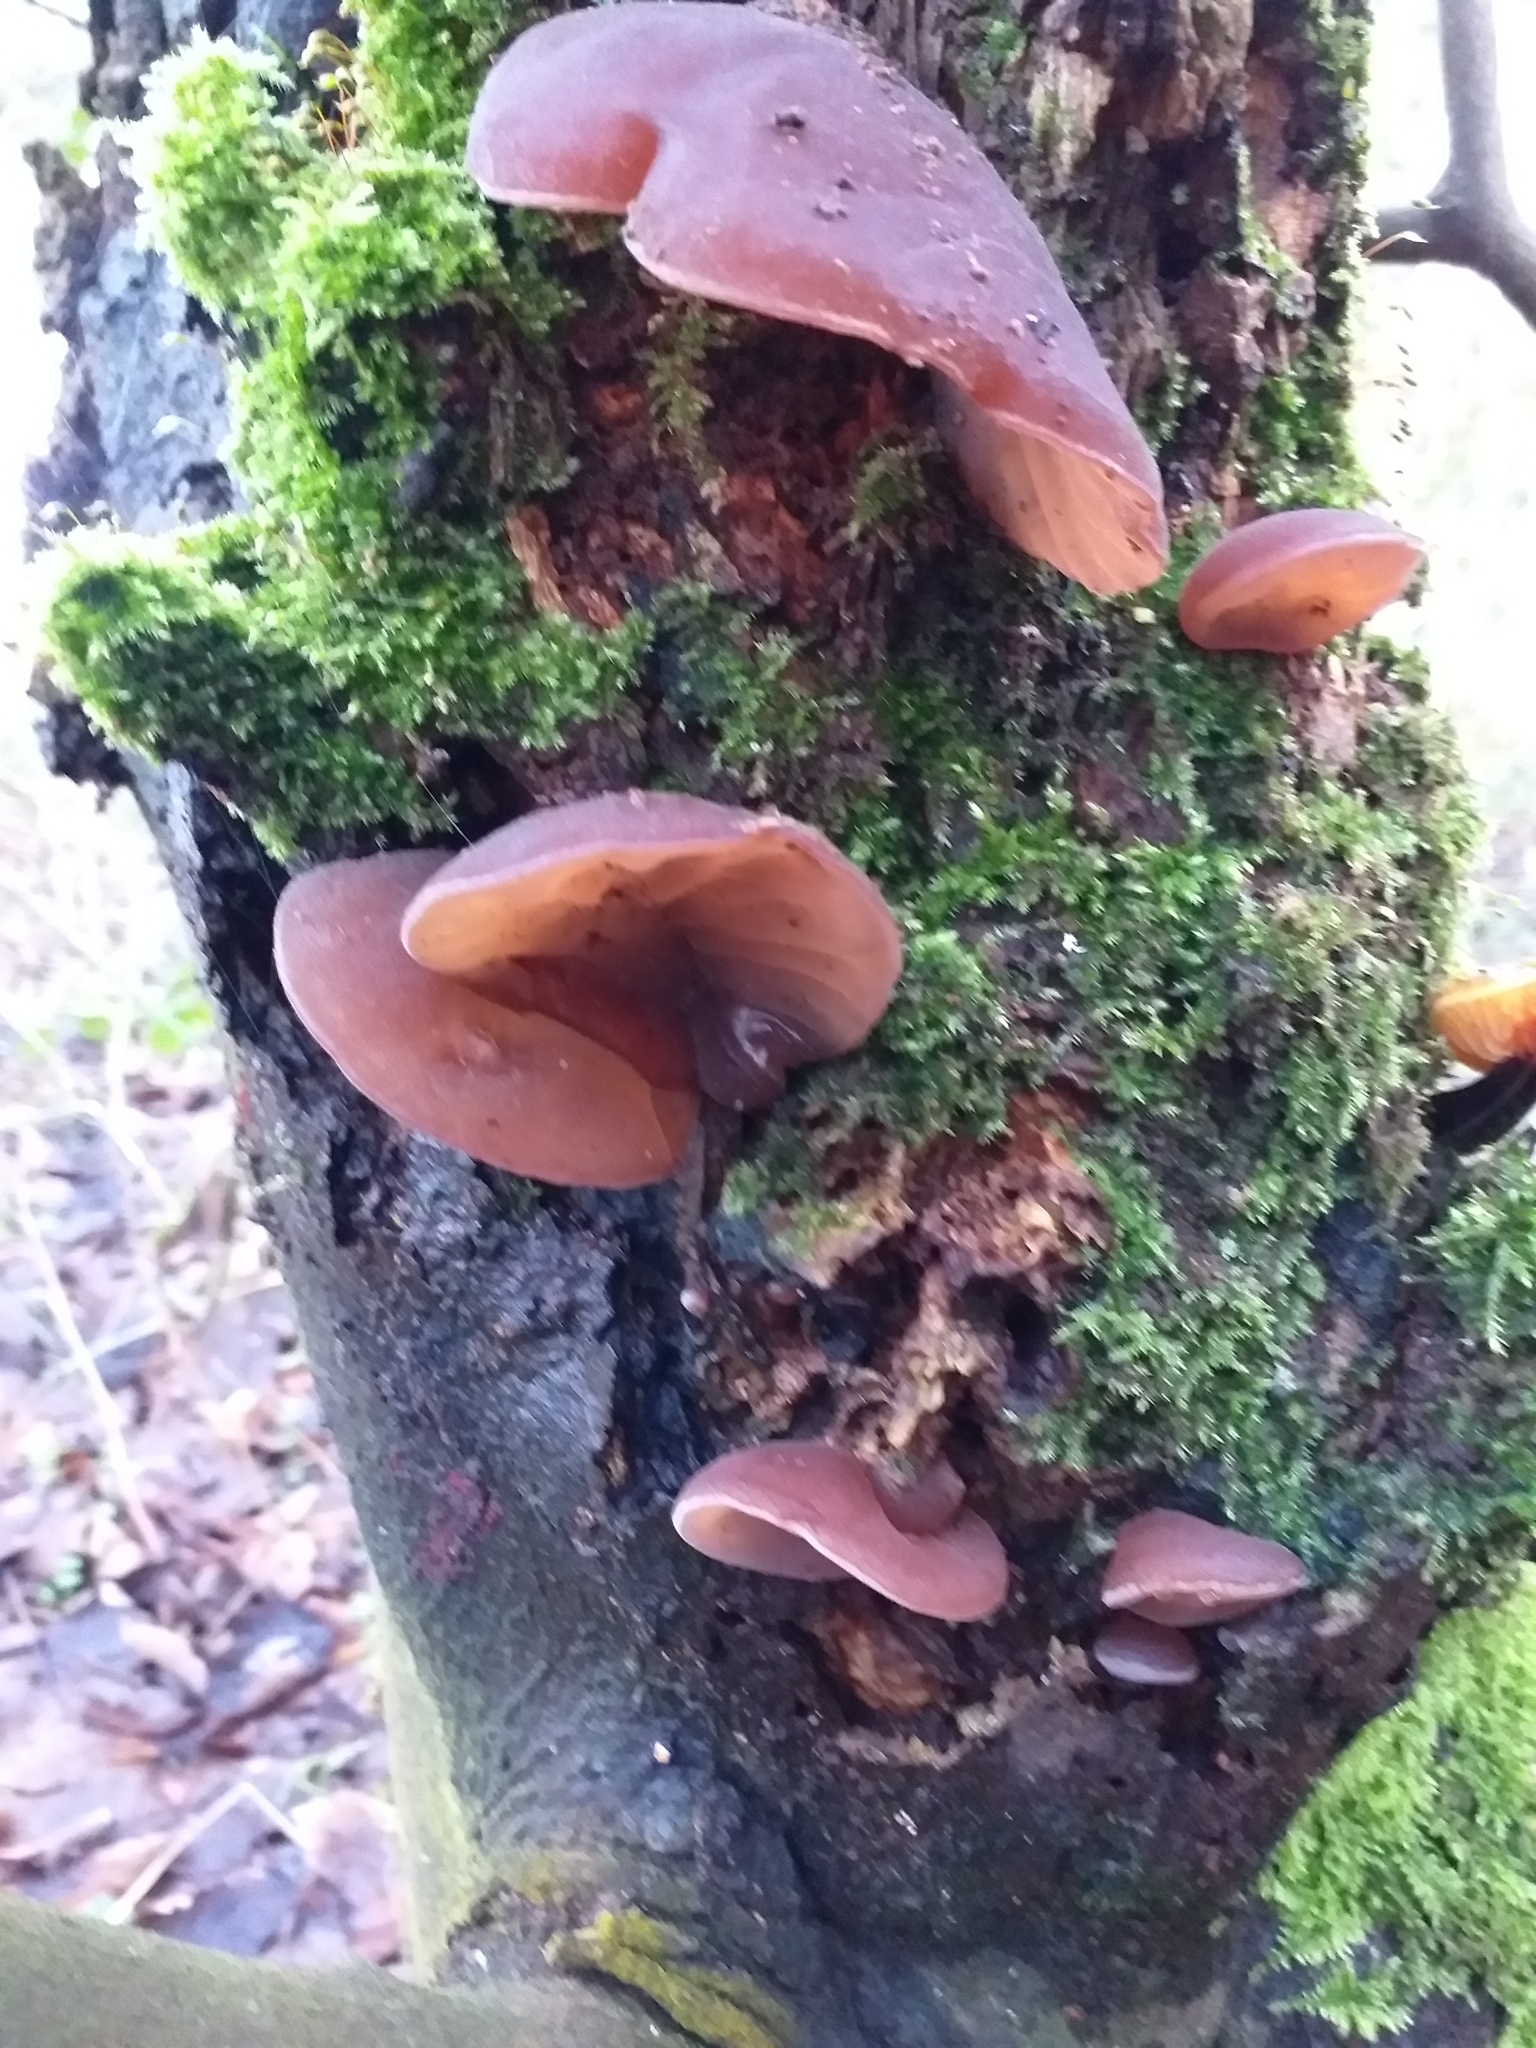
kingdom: Fungi
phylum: Basidiomycota
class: Agaricomycetes
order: Auriculariales
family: Auriculariaceae
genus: Auricularia
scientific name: Auricularia auricula-judae
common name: Jelly ear
